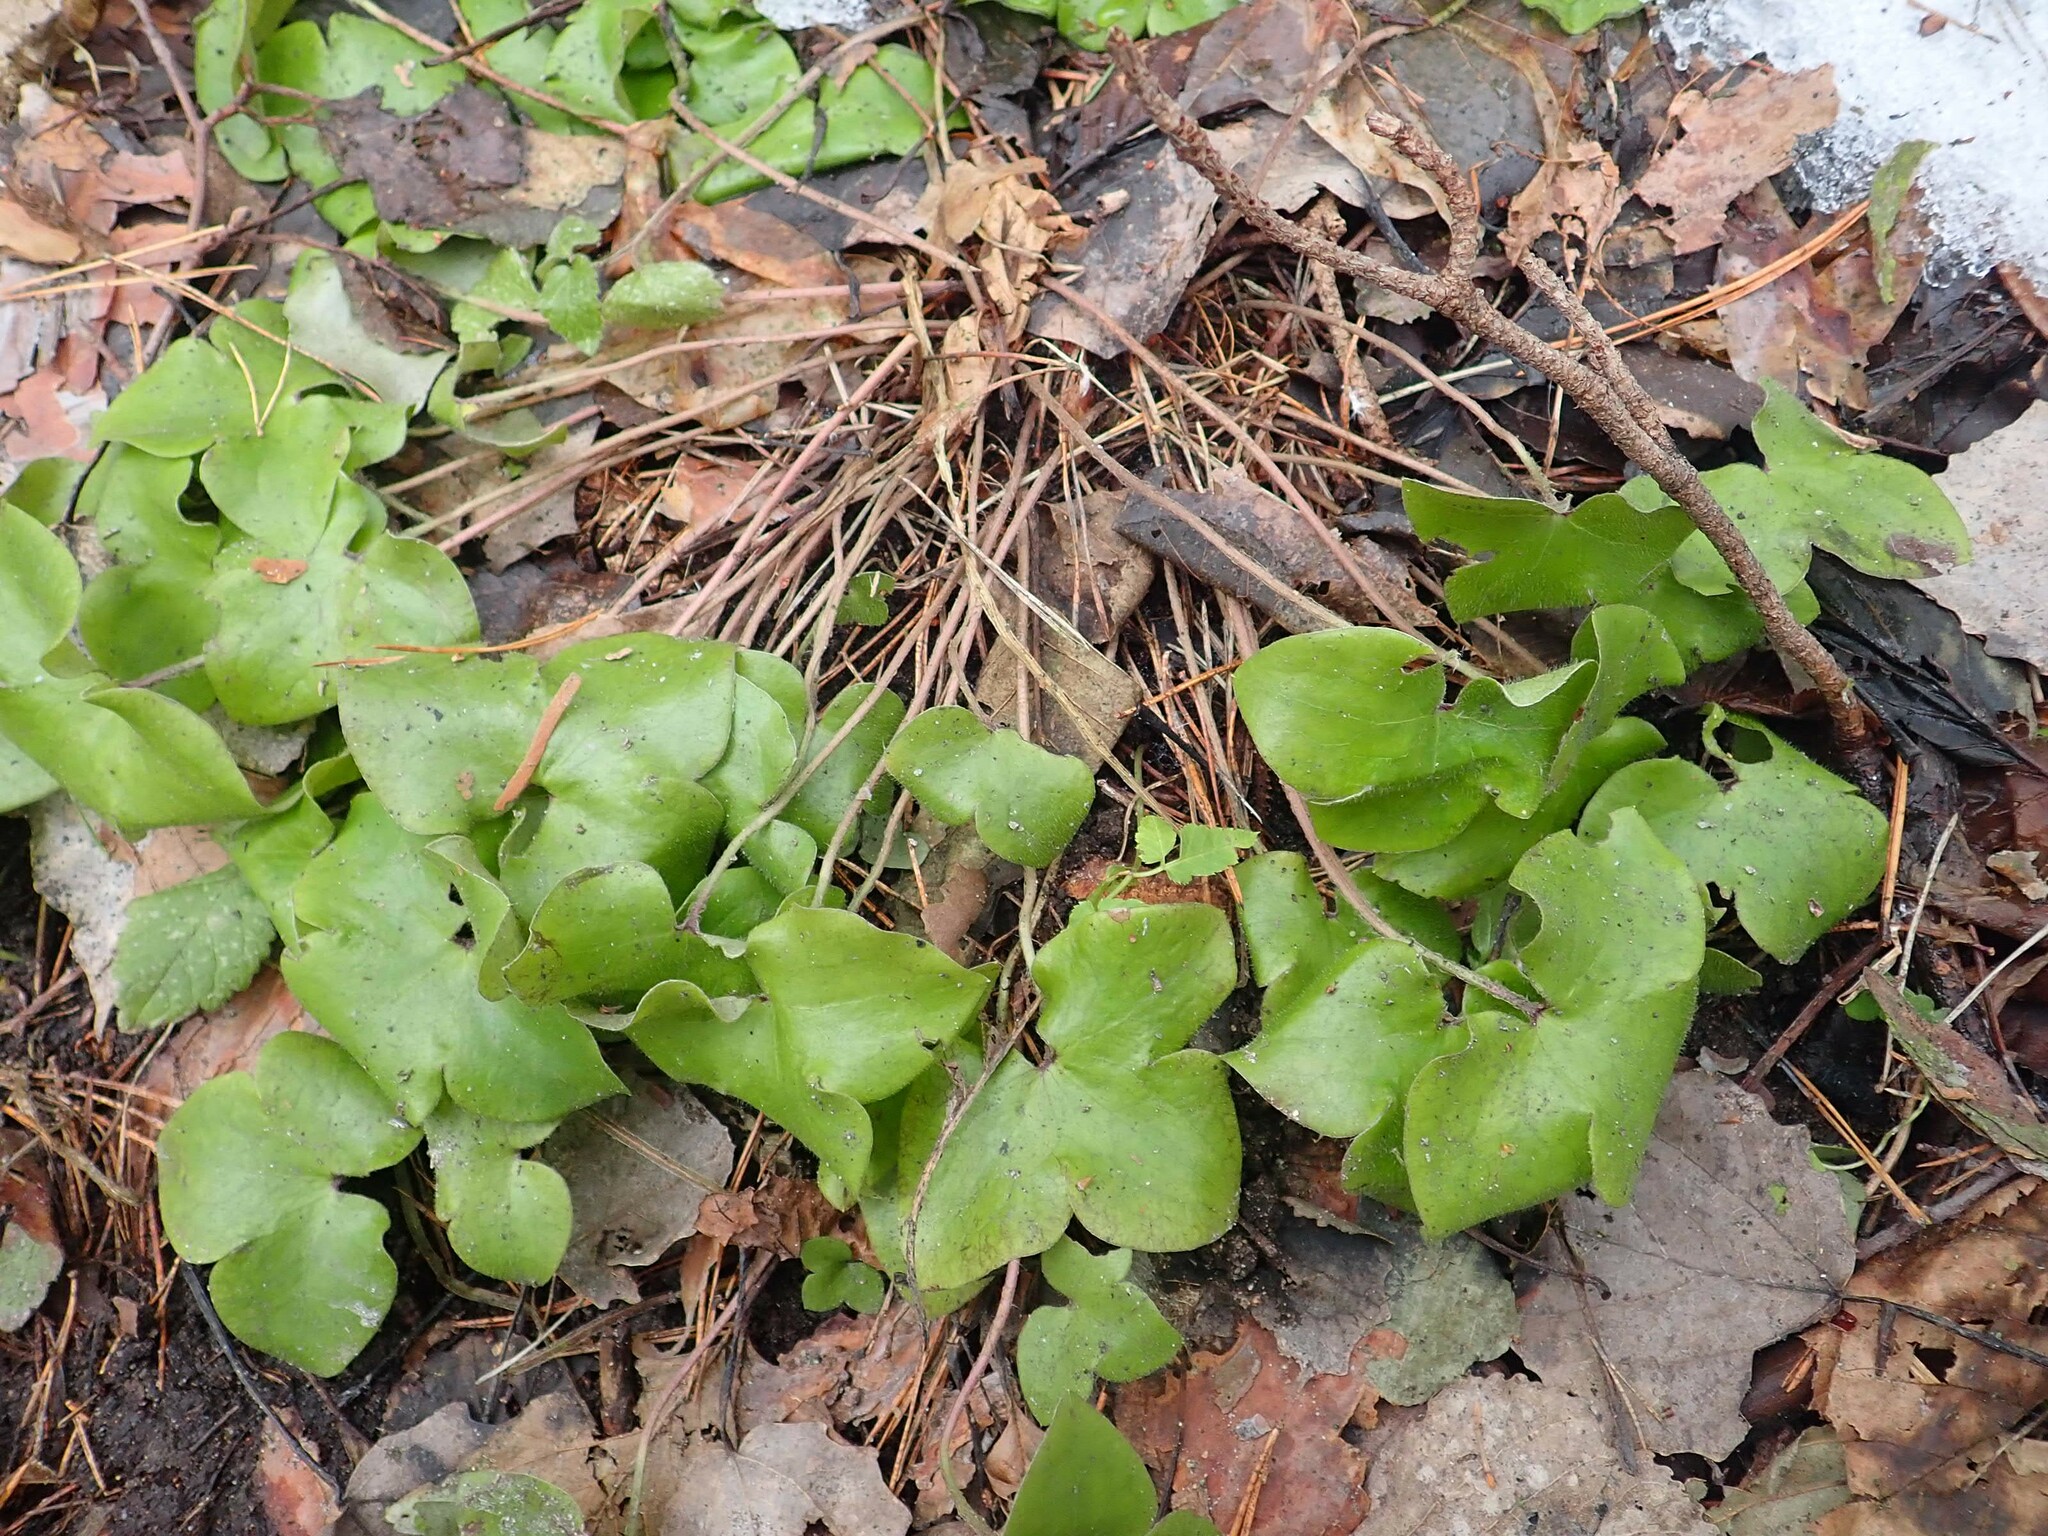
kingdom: Plantae
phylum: Tracheophyta
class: Magnoliopsida
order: Ranunculales
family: Ranunculaceae
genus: Hepatica
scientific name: Hepatica nobilis
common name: Liverleaf
